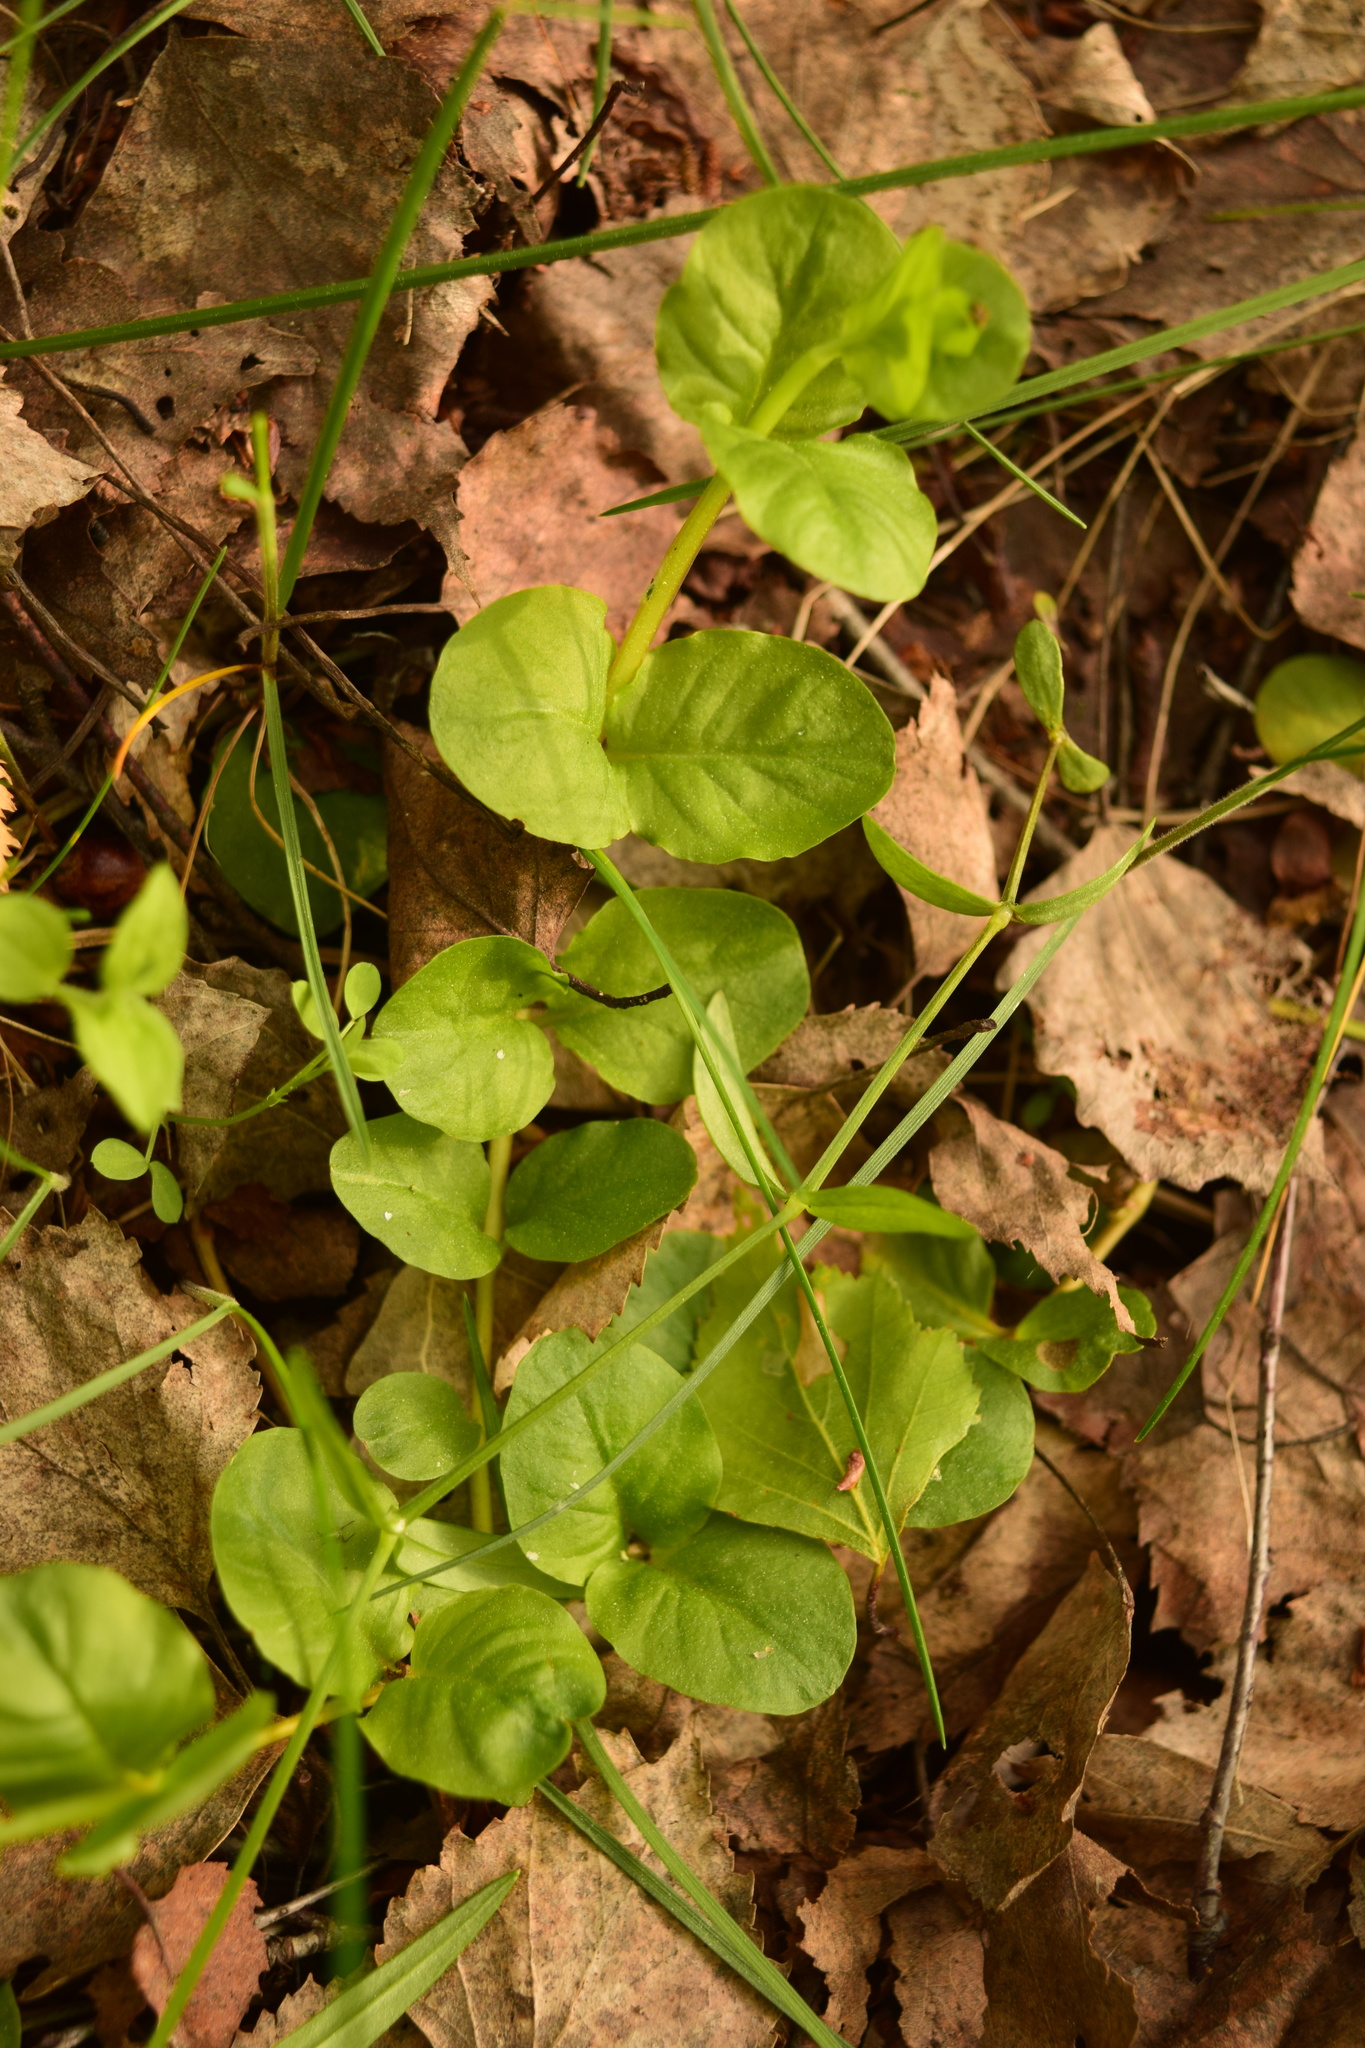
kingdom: Plantae
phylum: Tracheophyta
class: Magnoliopsida
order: Ericales
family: Primulaceae
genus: Lysimachia
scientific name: Lysimachia nummularia
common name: Moneywort
